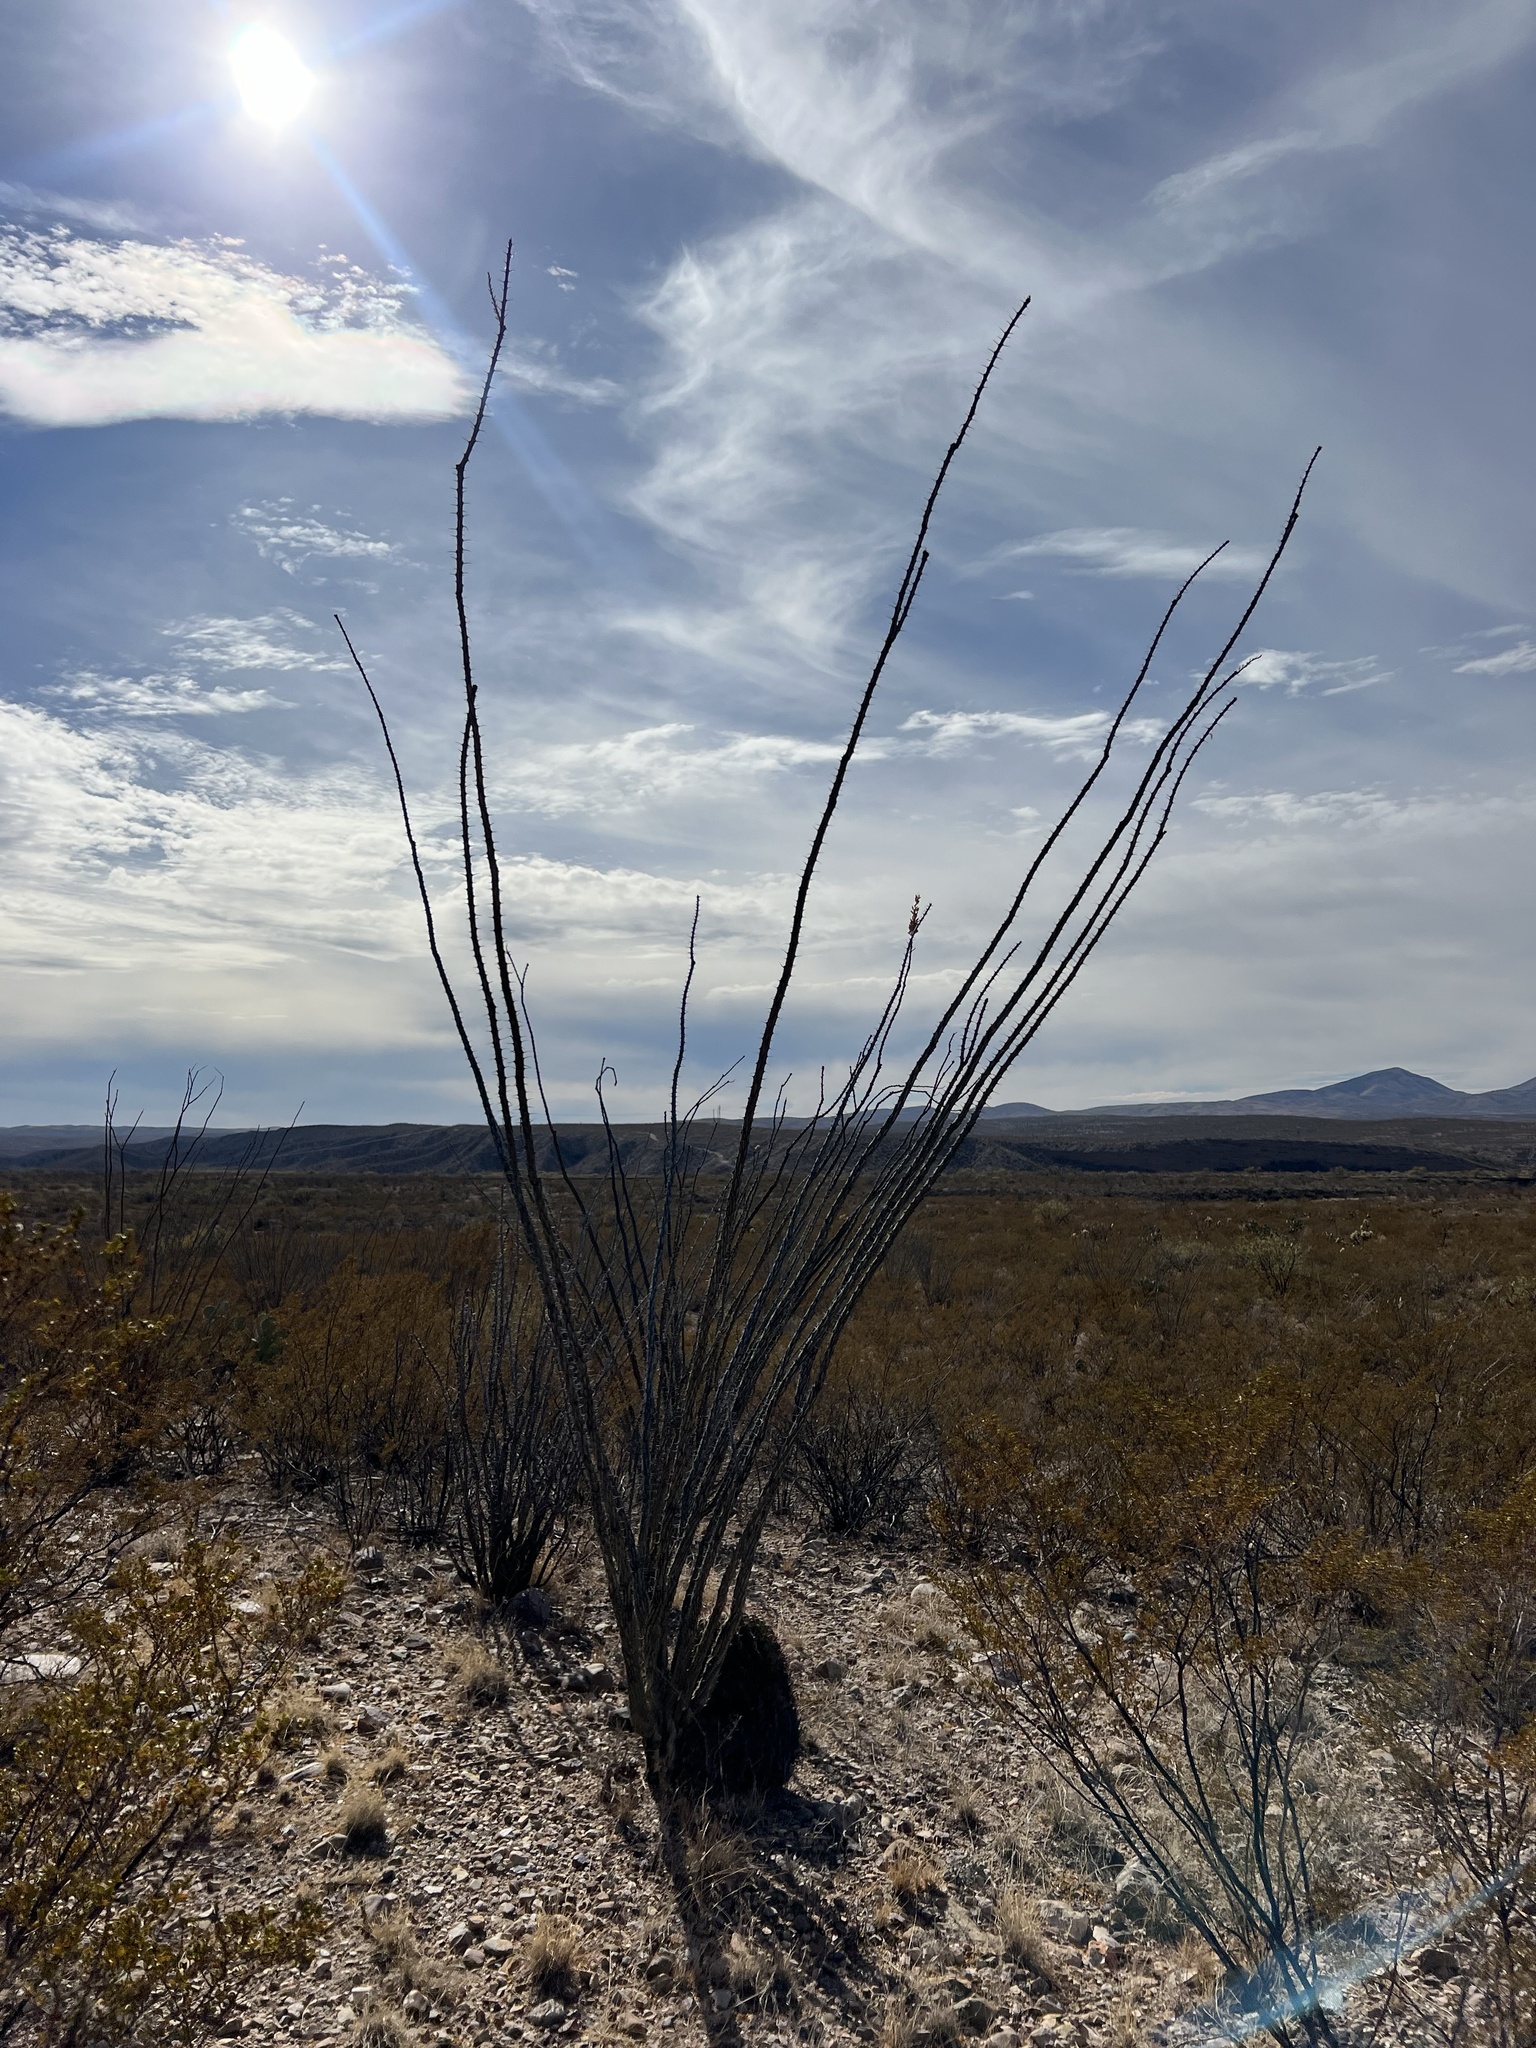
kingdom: Plantae
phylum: Tracheophyta
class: Magnoliopsida
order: Ericales
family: Fouquieriaceae
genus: Fouquieria
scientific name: Fouquieria splendens
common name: Vine-cactus
